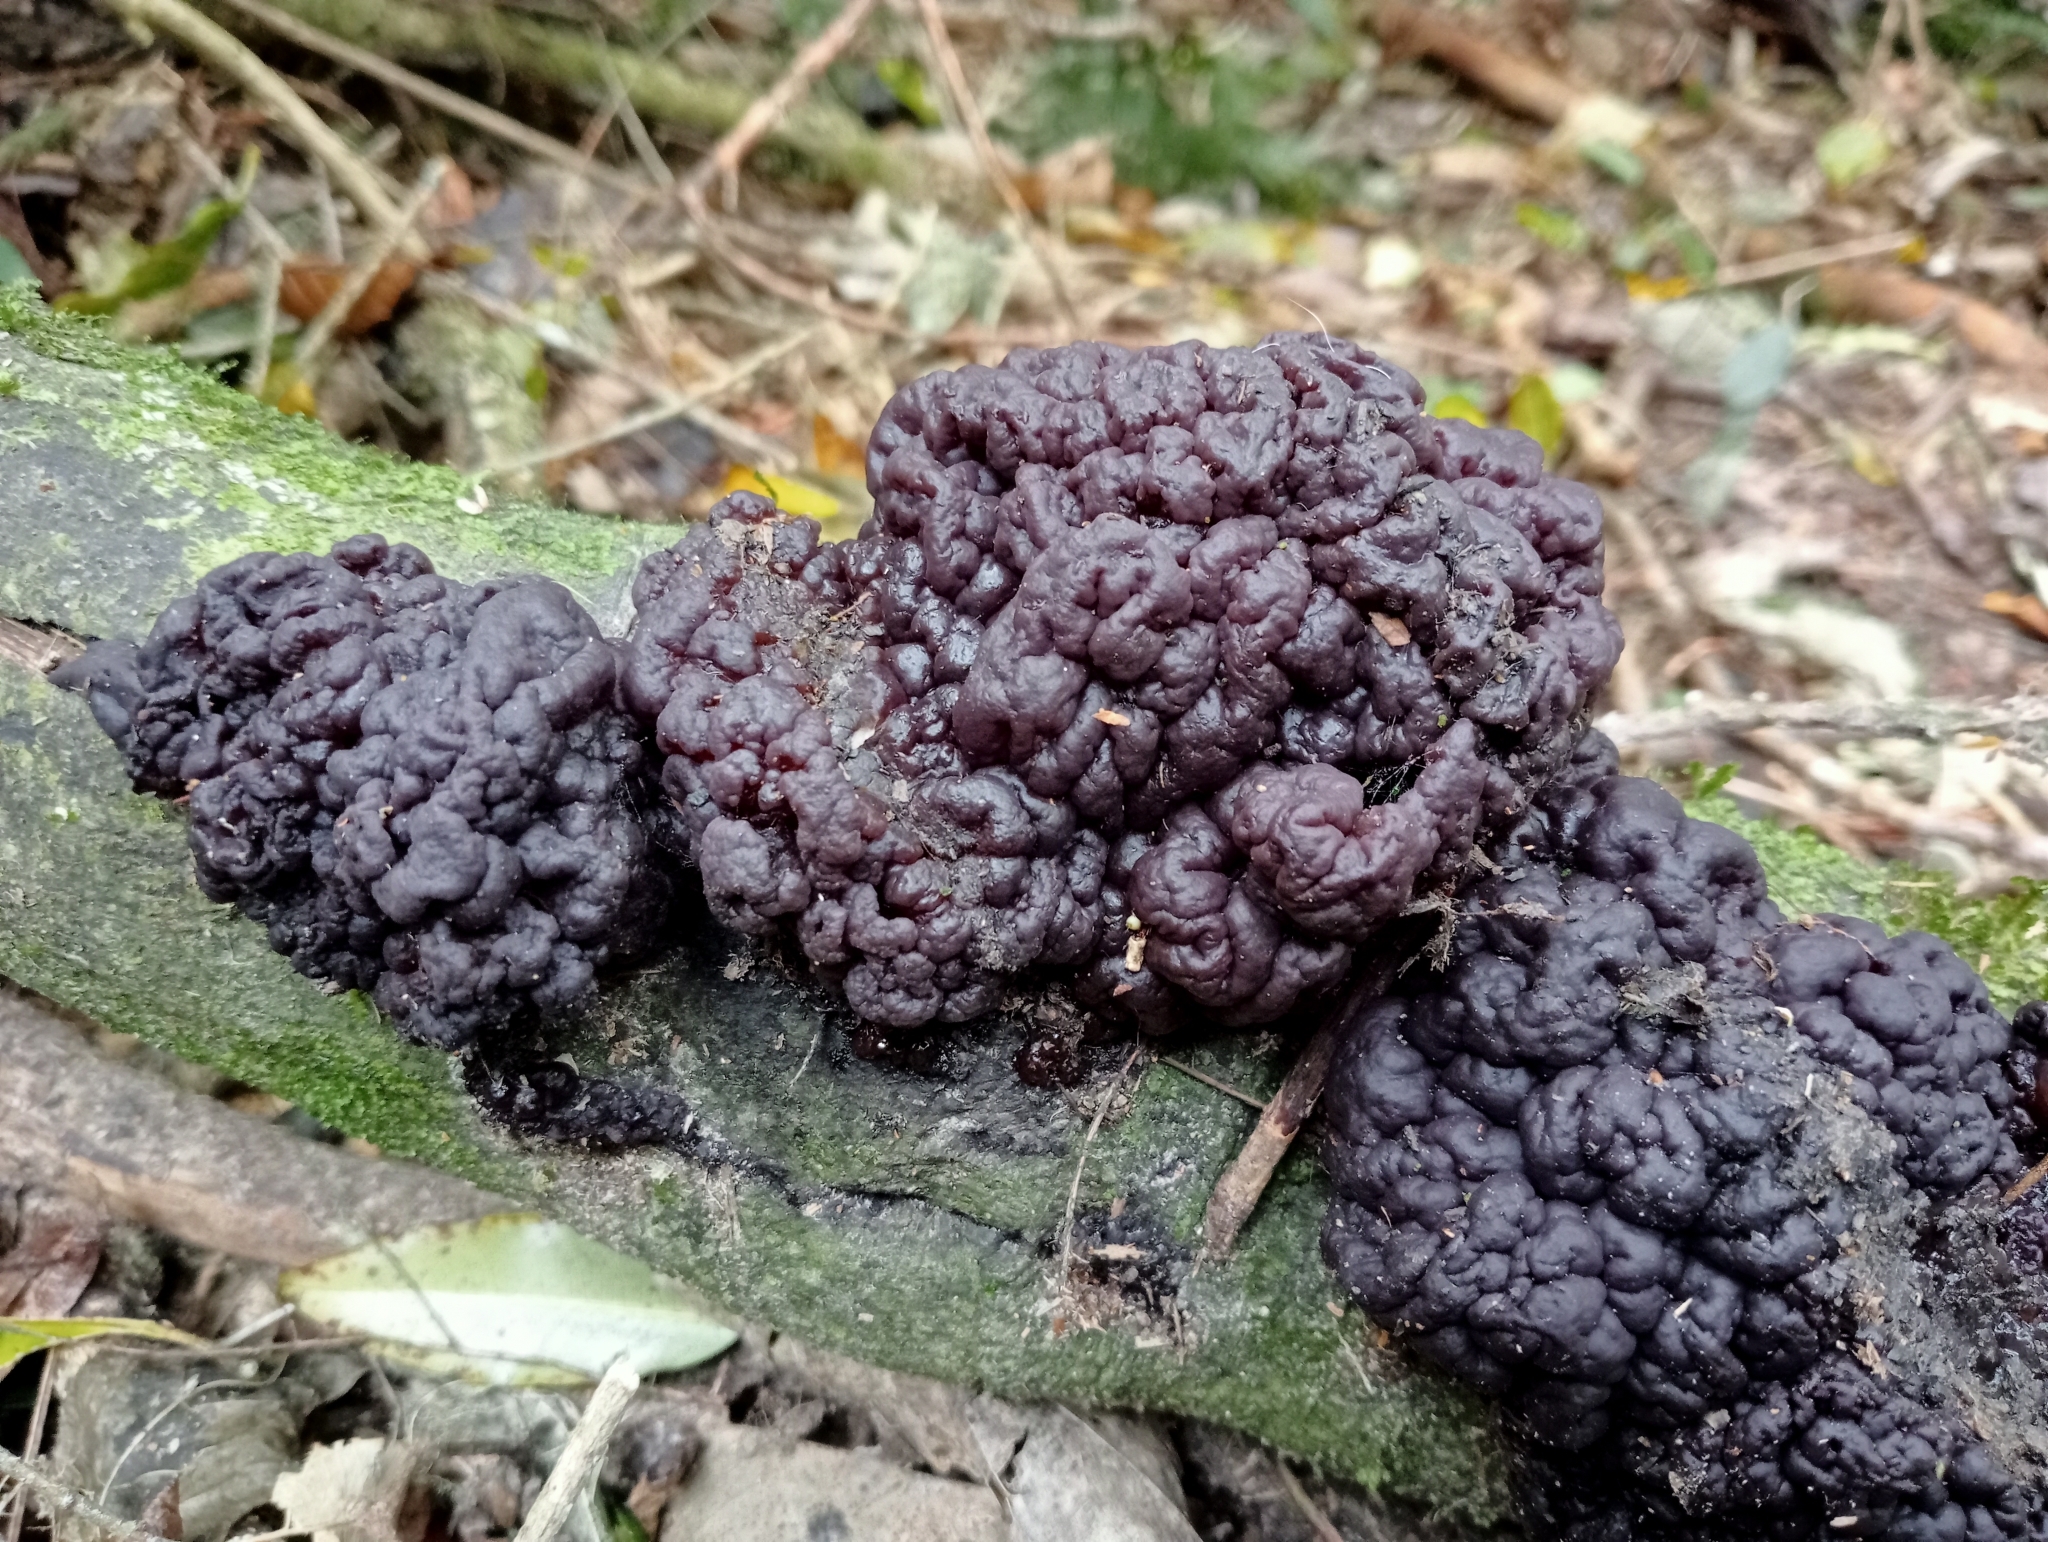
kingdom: Fungi
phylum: Ascomycota
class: Leotiomycetes
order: Helotiales
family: Gelatinodiscaceae
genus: Ascotremella
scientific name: Ascotremella faginea
